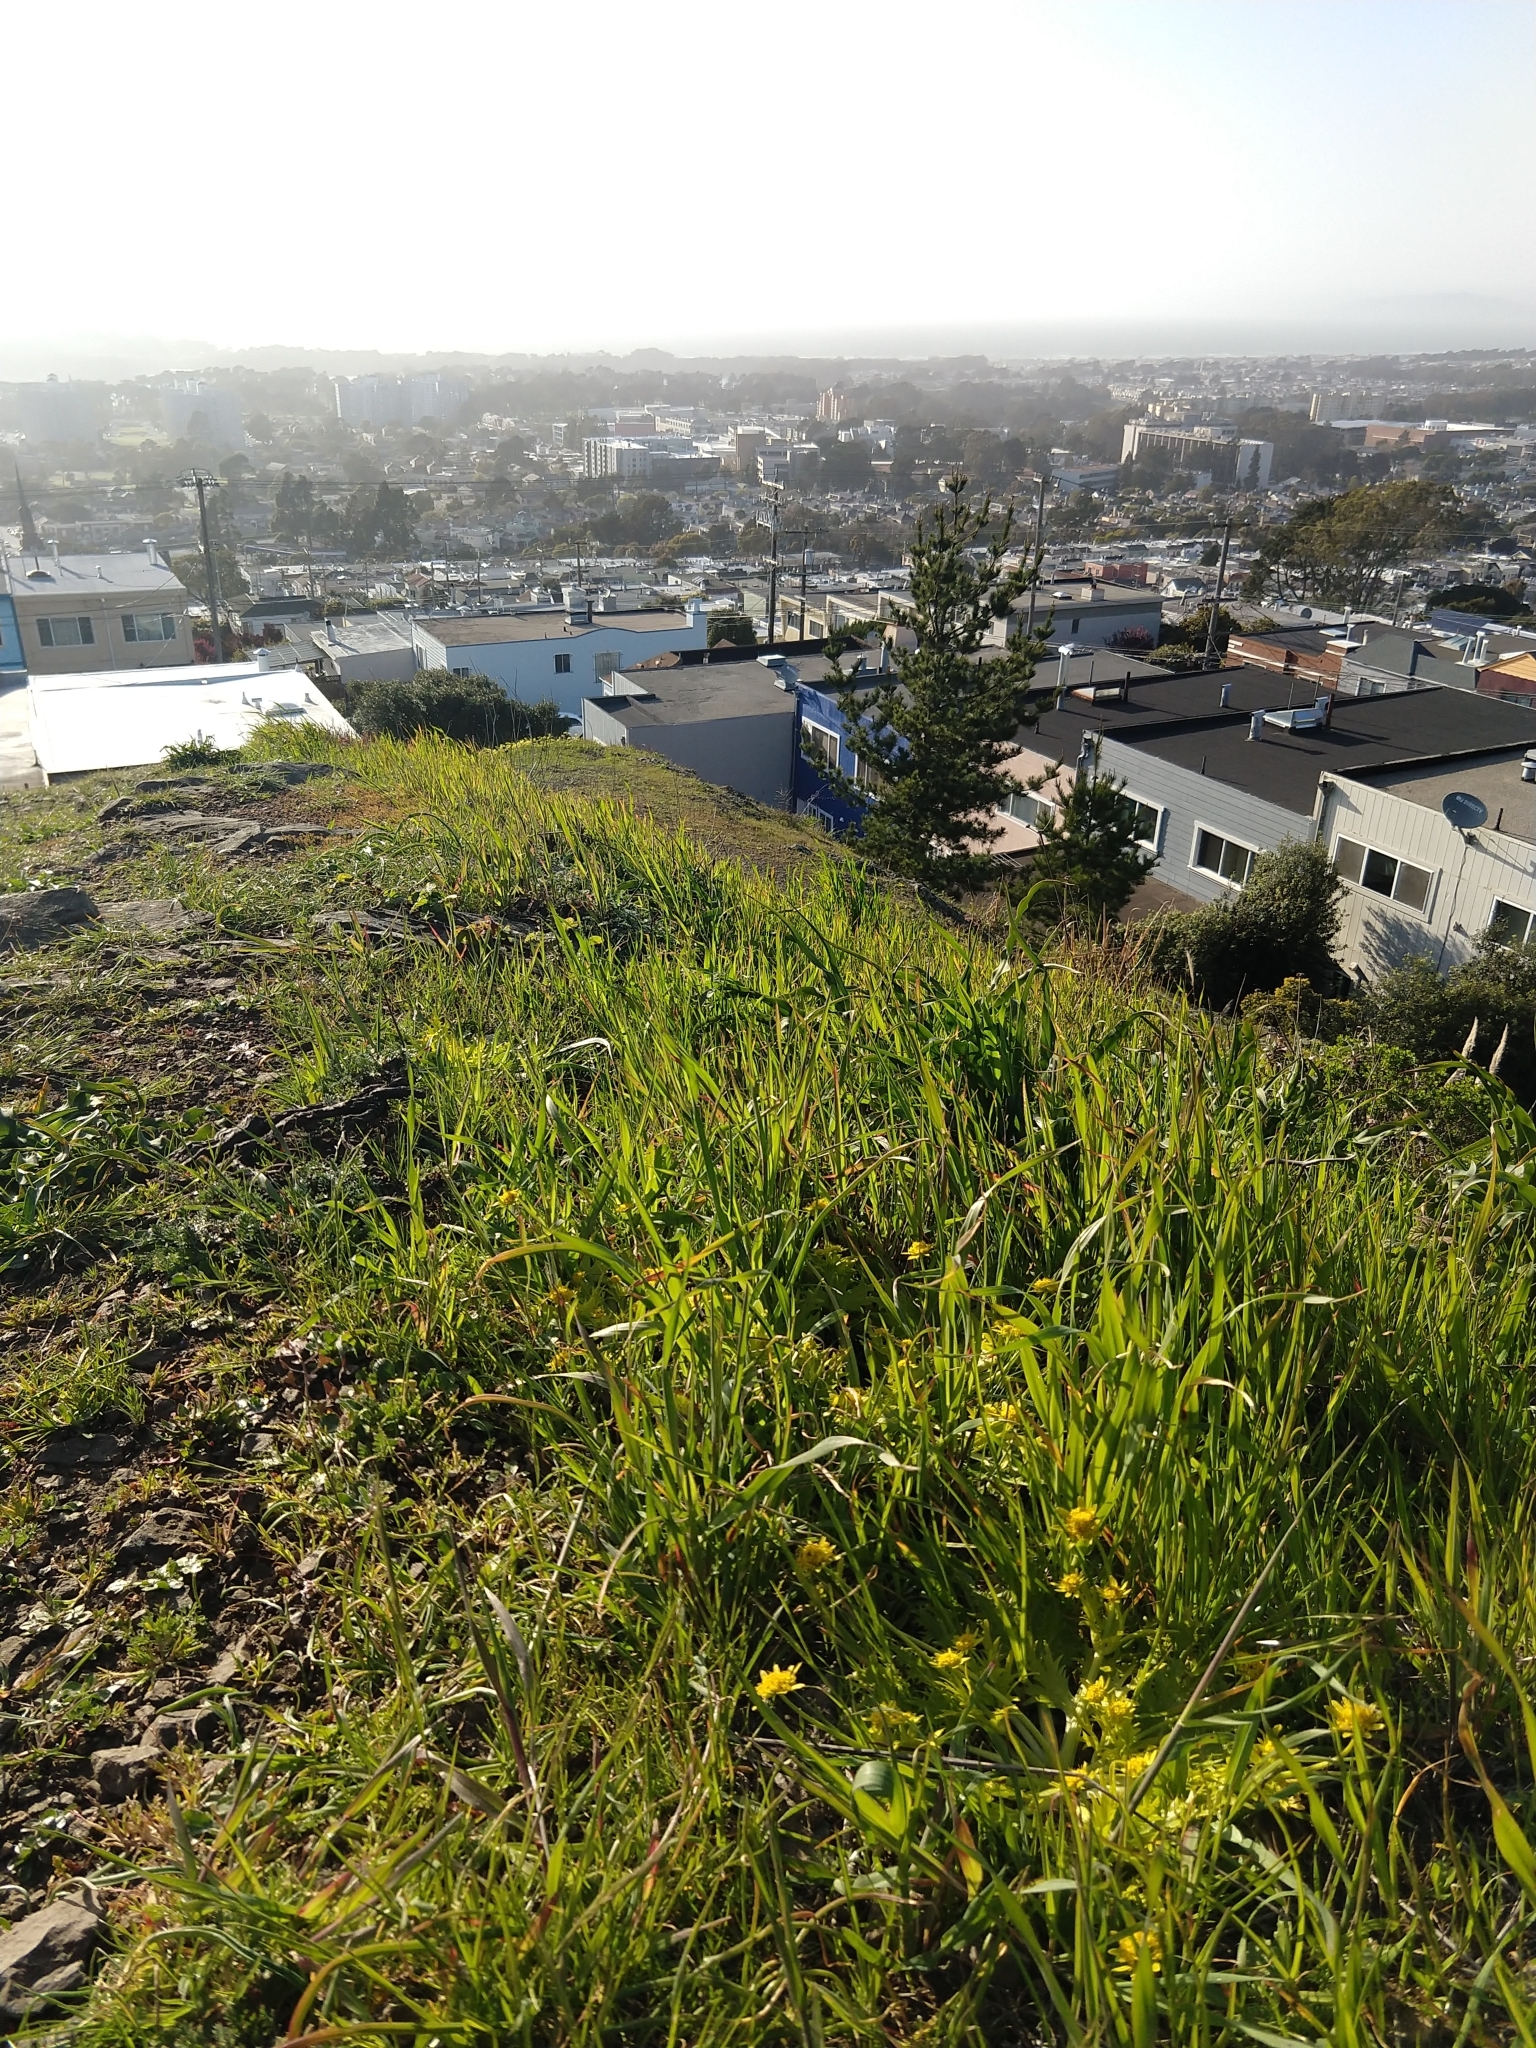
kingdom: Plantae
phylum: Tracheophyta
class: Magnoliopsida
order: Apiales
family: Apiaceae
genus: Sanicula
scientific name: Sanicula arctopoides
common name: Footsteps-of-spring
